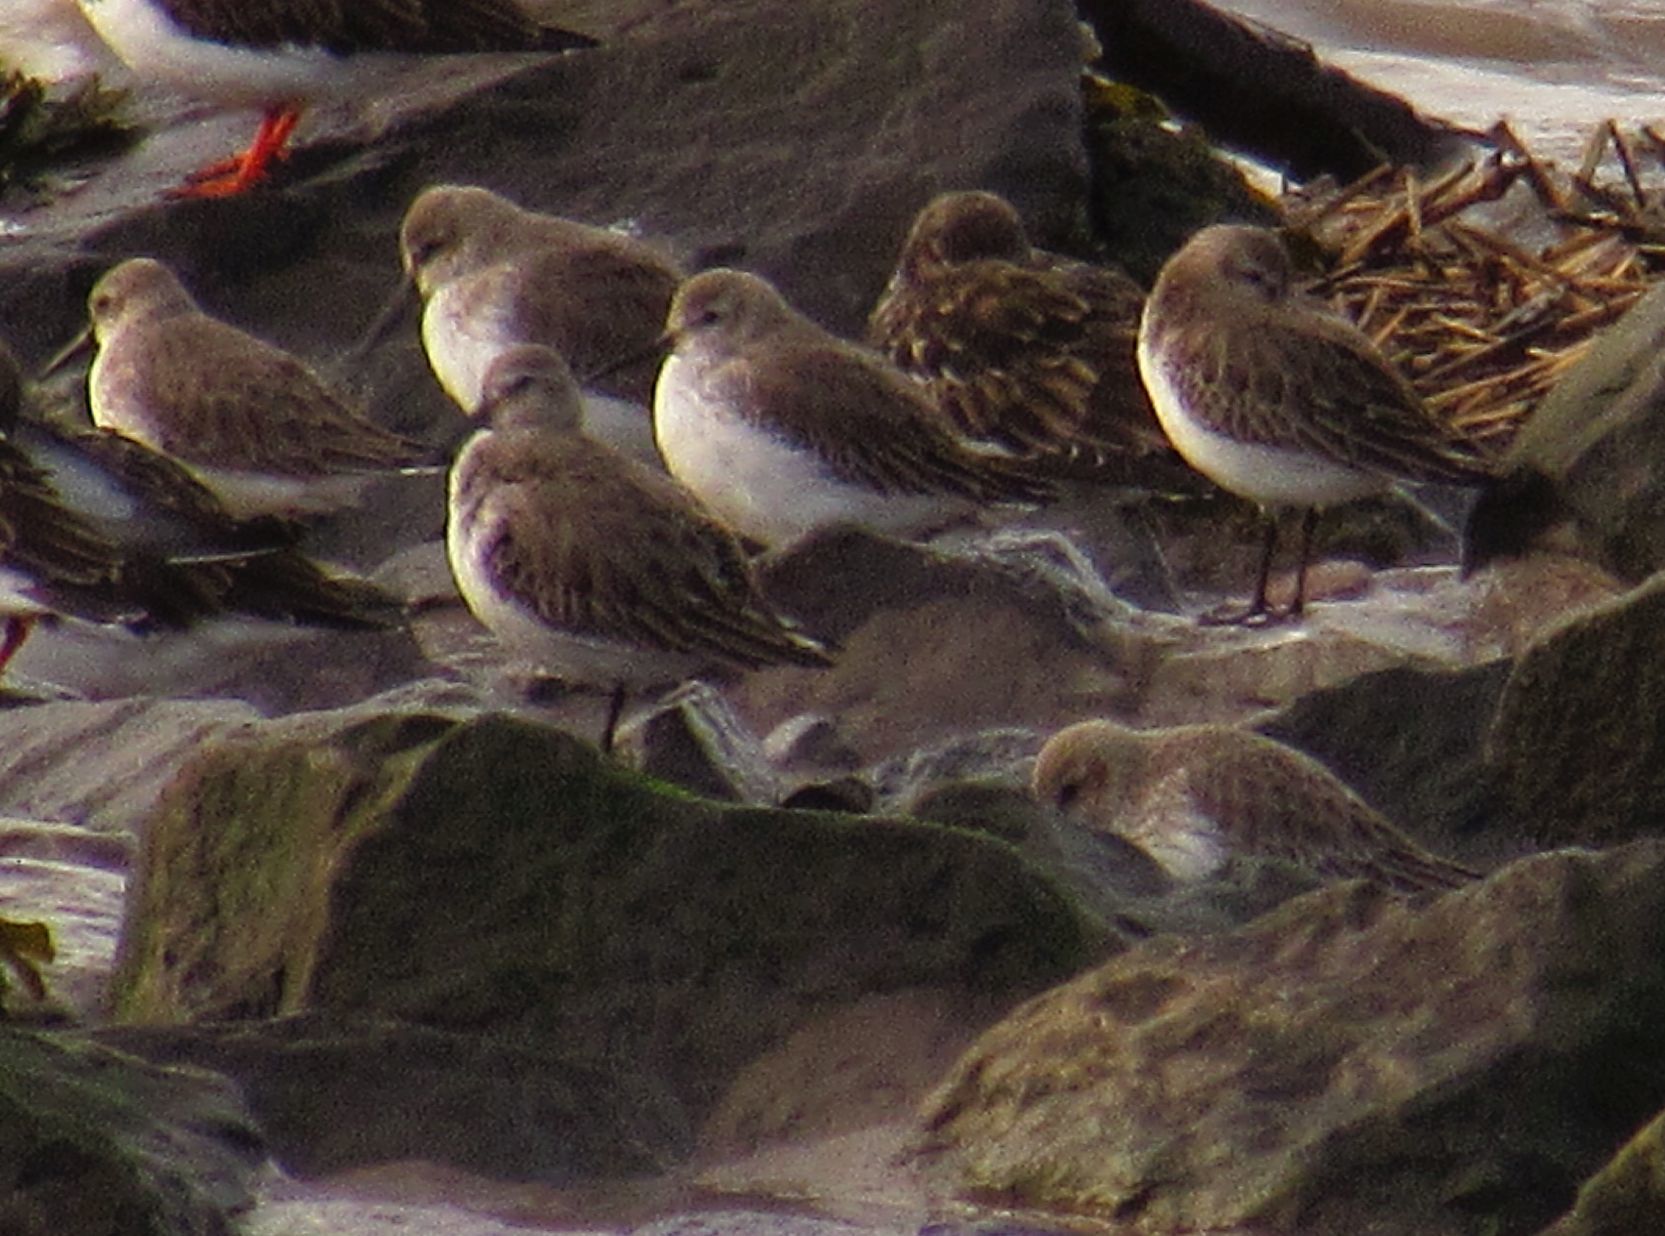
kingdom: Animalia
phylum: Chordata
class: Aves
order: Charadriiformes
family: Scolopacidae
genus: Calidris
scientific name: Calidris alpina
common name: Dunlin
